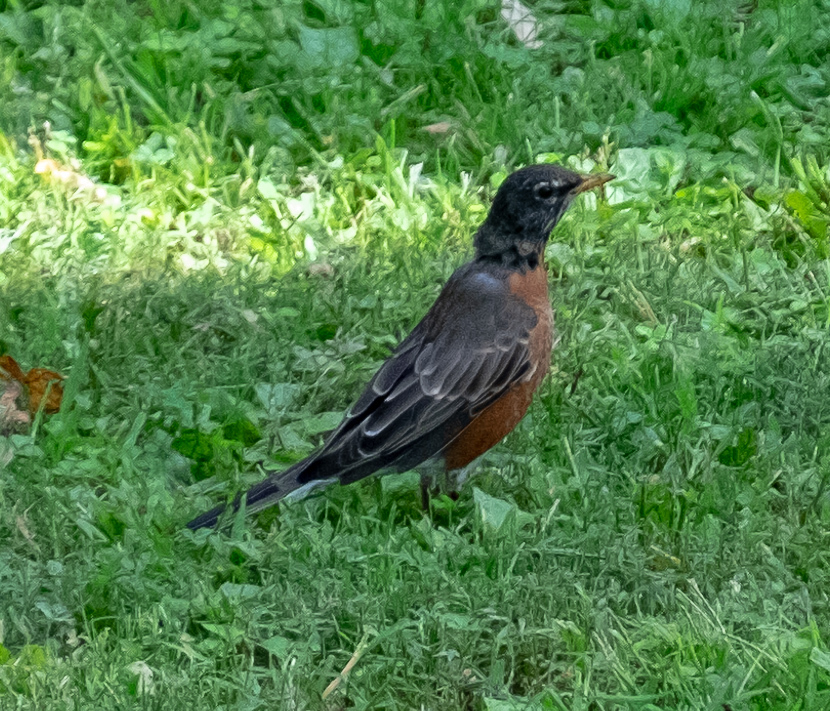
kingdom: Animalia
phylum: Chordata
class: Aves
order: Passeriformes
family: Turdidae
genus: Turdus
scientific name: Turdus migratorius
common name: American robin
